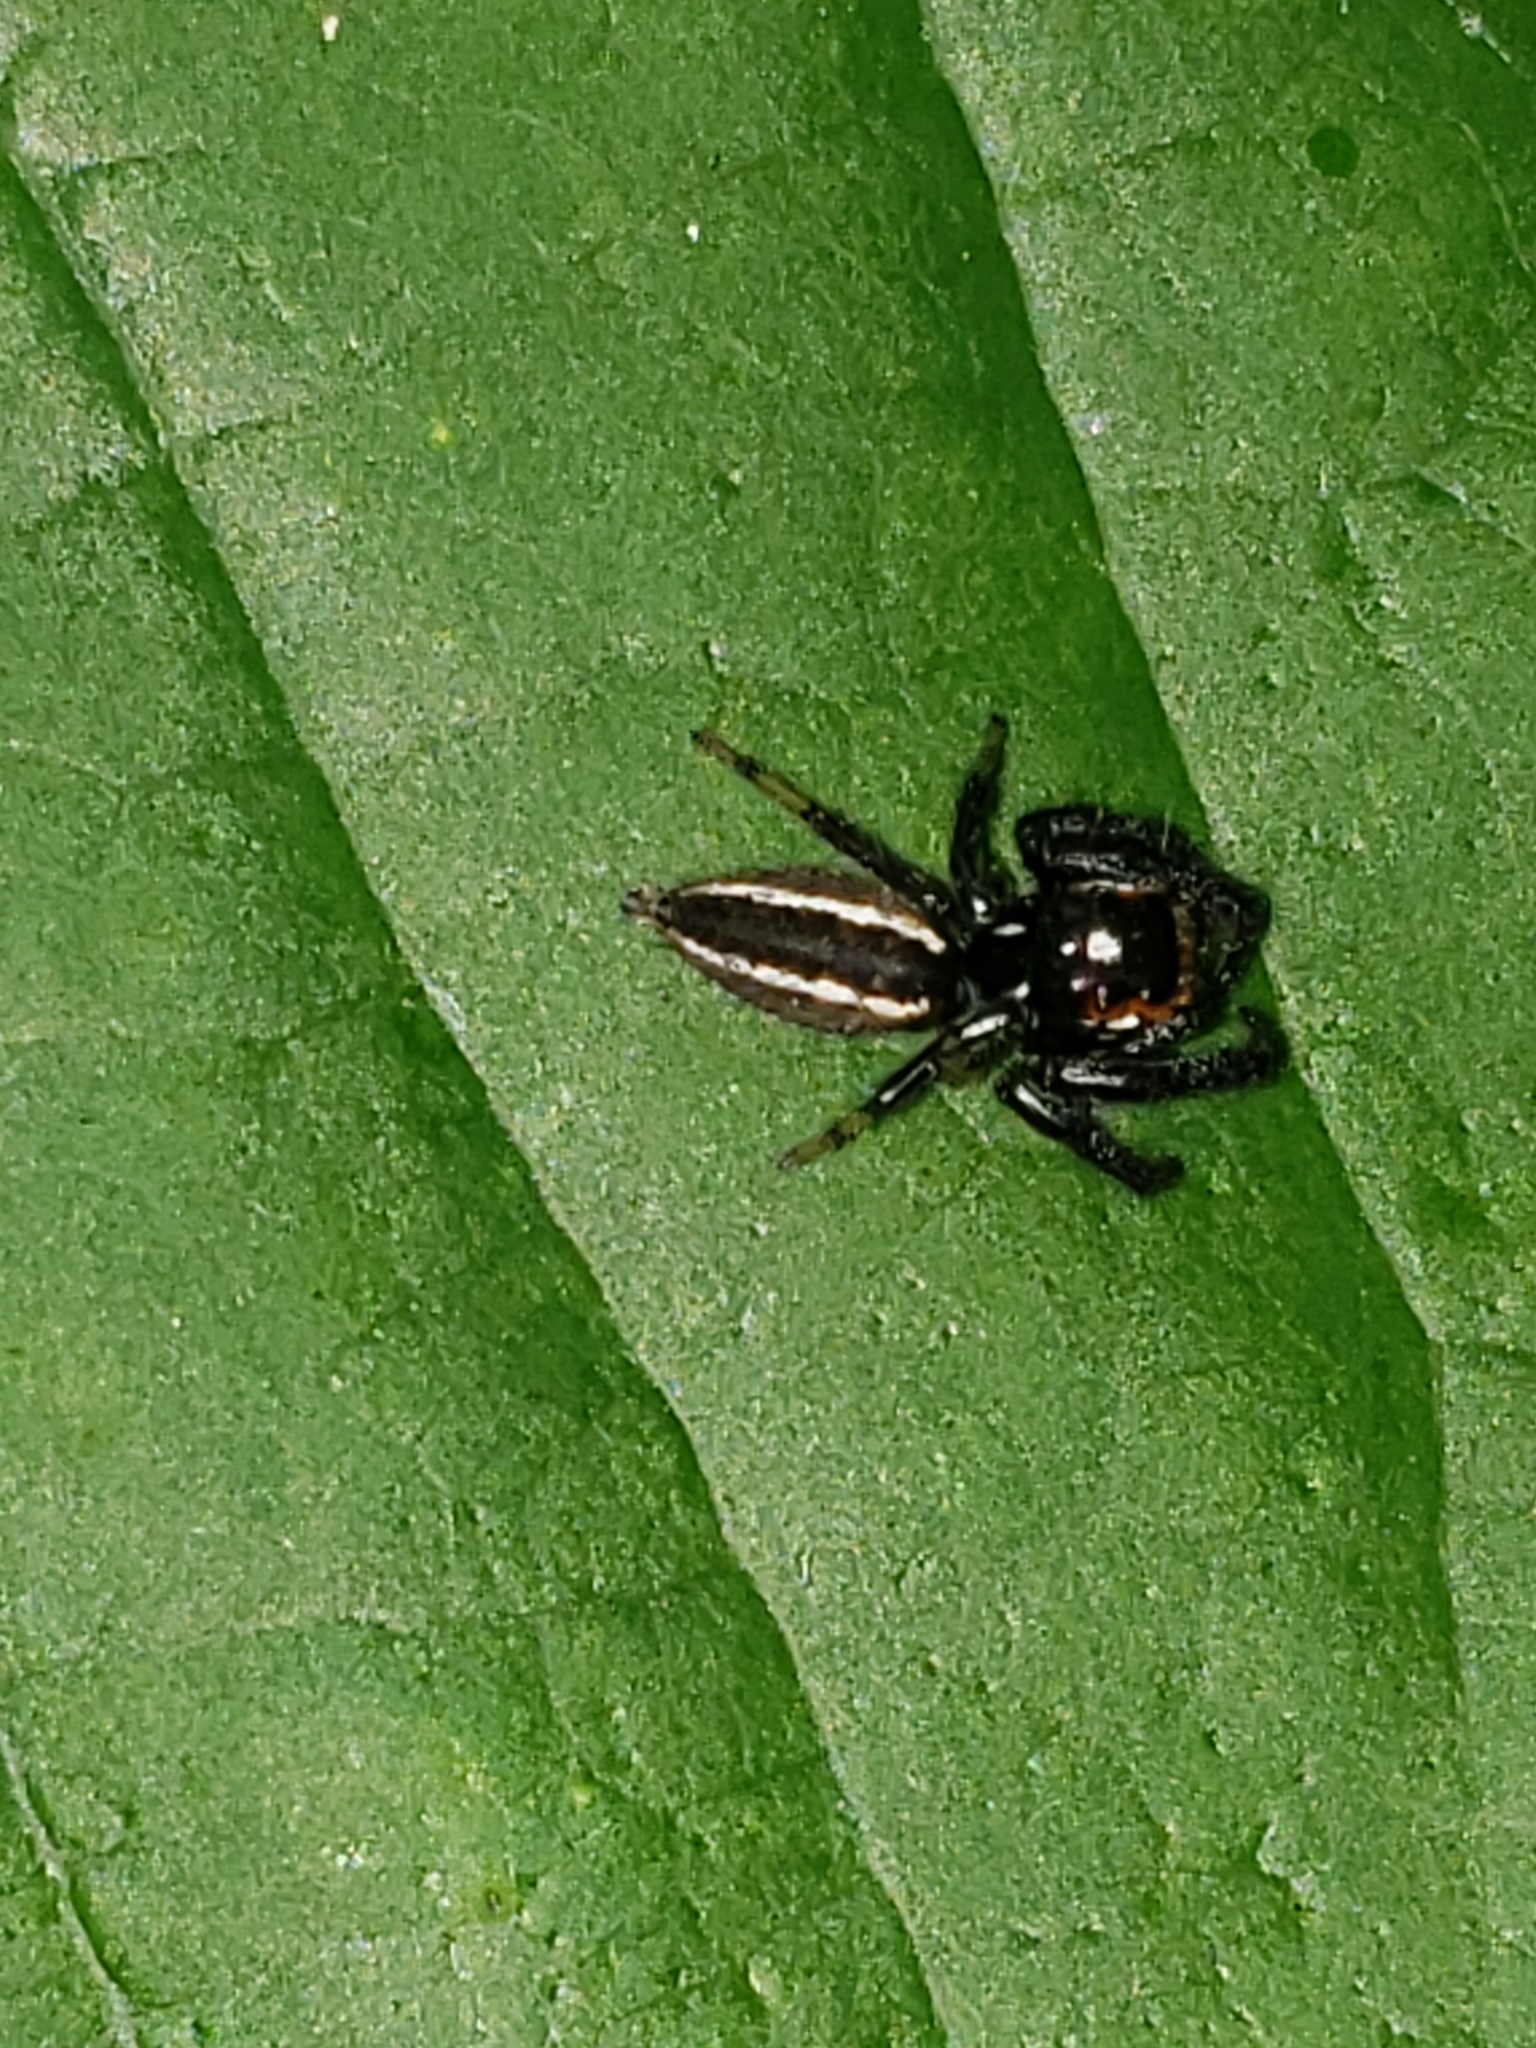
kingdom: Animalia
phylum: Arthropoda
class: Arachnida
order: Araneae
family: Salticidae
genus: Colonus
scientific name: Colonus sylvanus
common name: Jumping spiders
